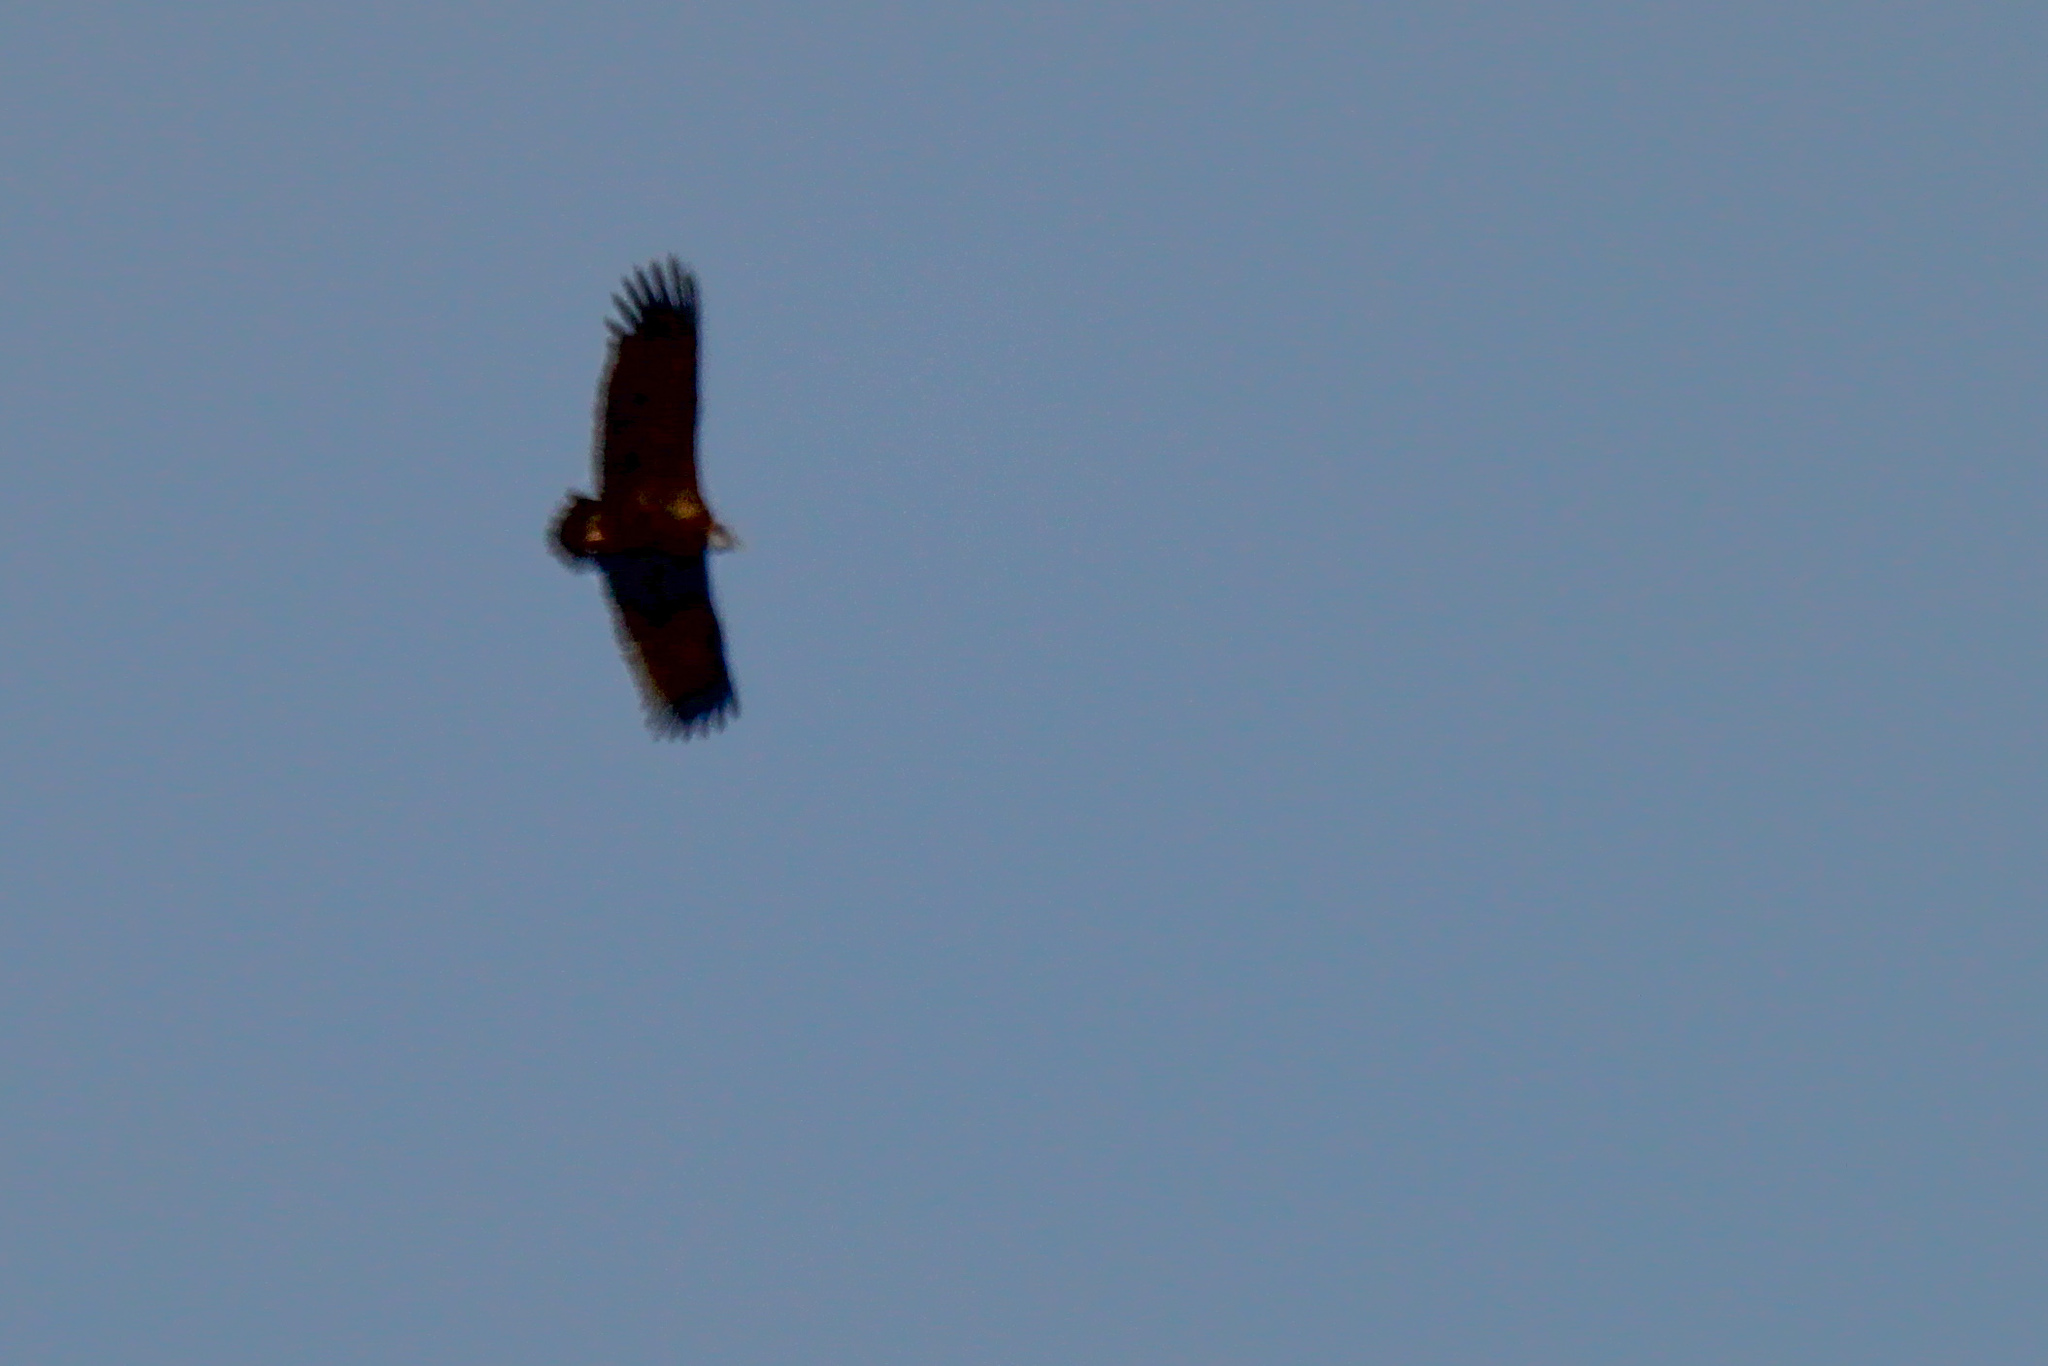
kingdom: Animalia
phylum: Chordata
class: Aves
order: Accipitriformes
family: Accipitridae
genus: Aegypius
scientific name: Aegypius monachus
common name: Cinereous vulture
